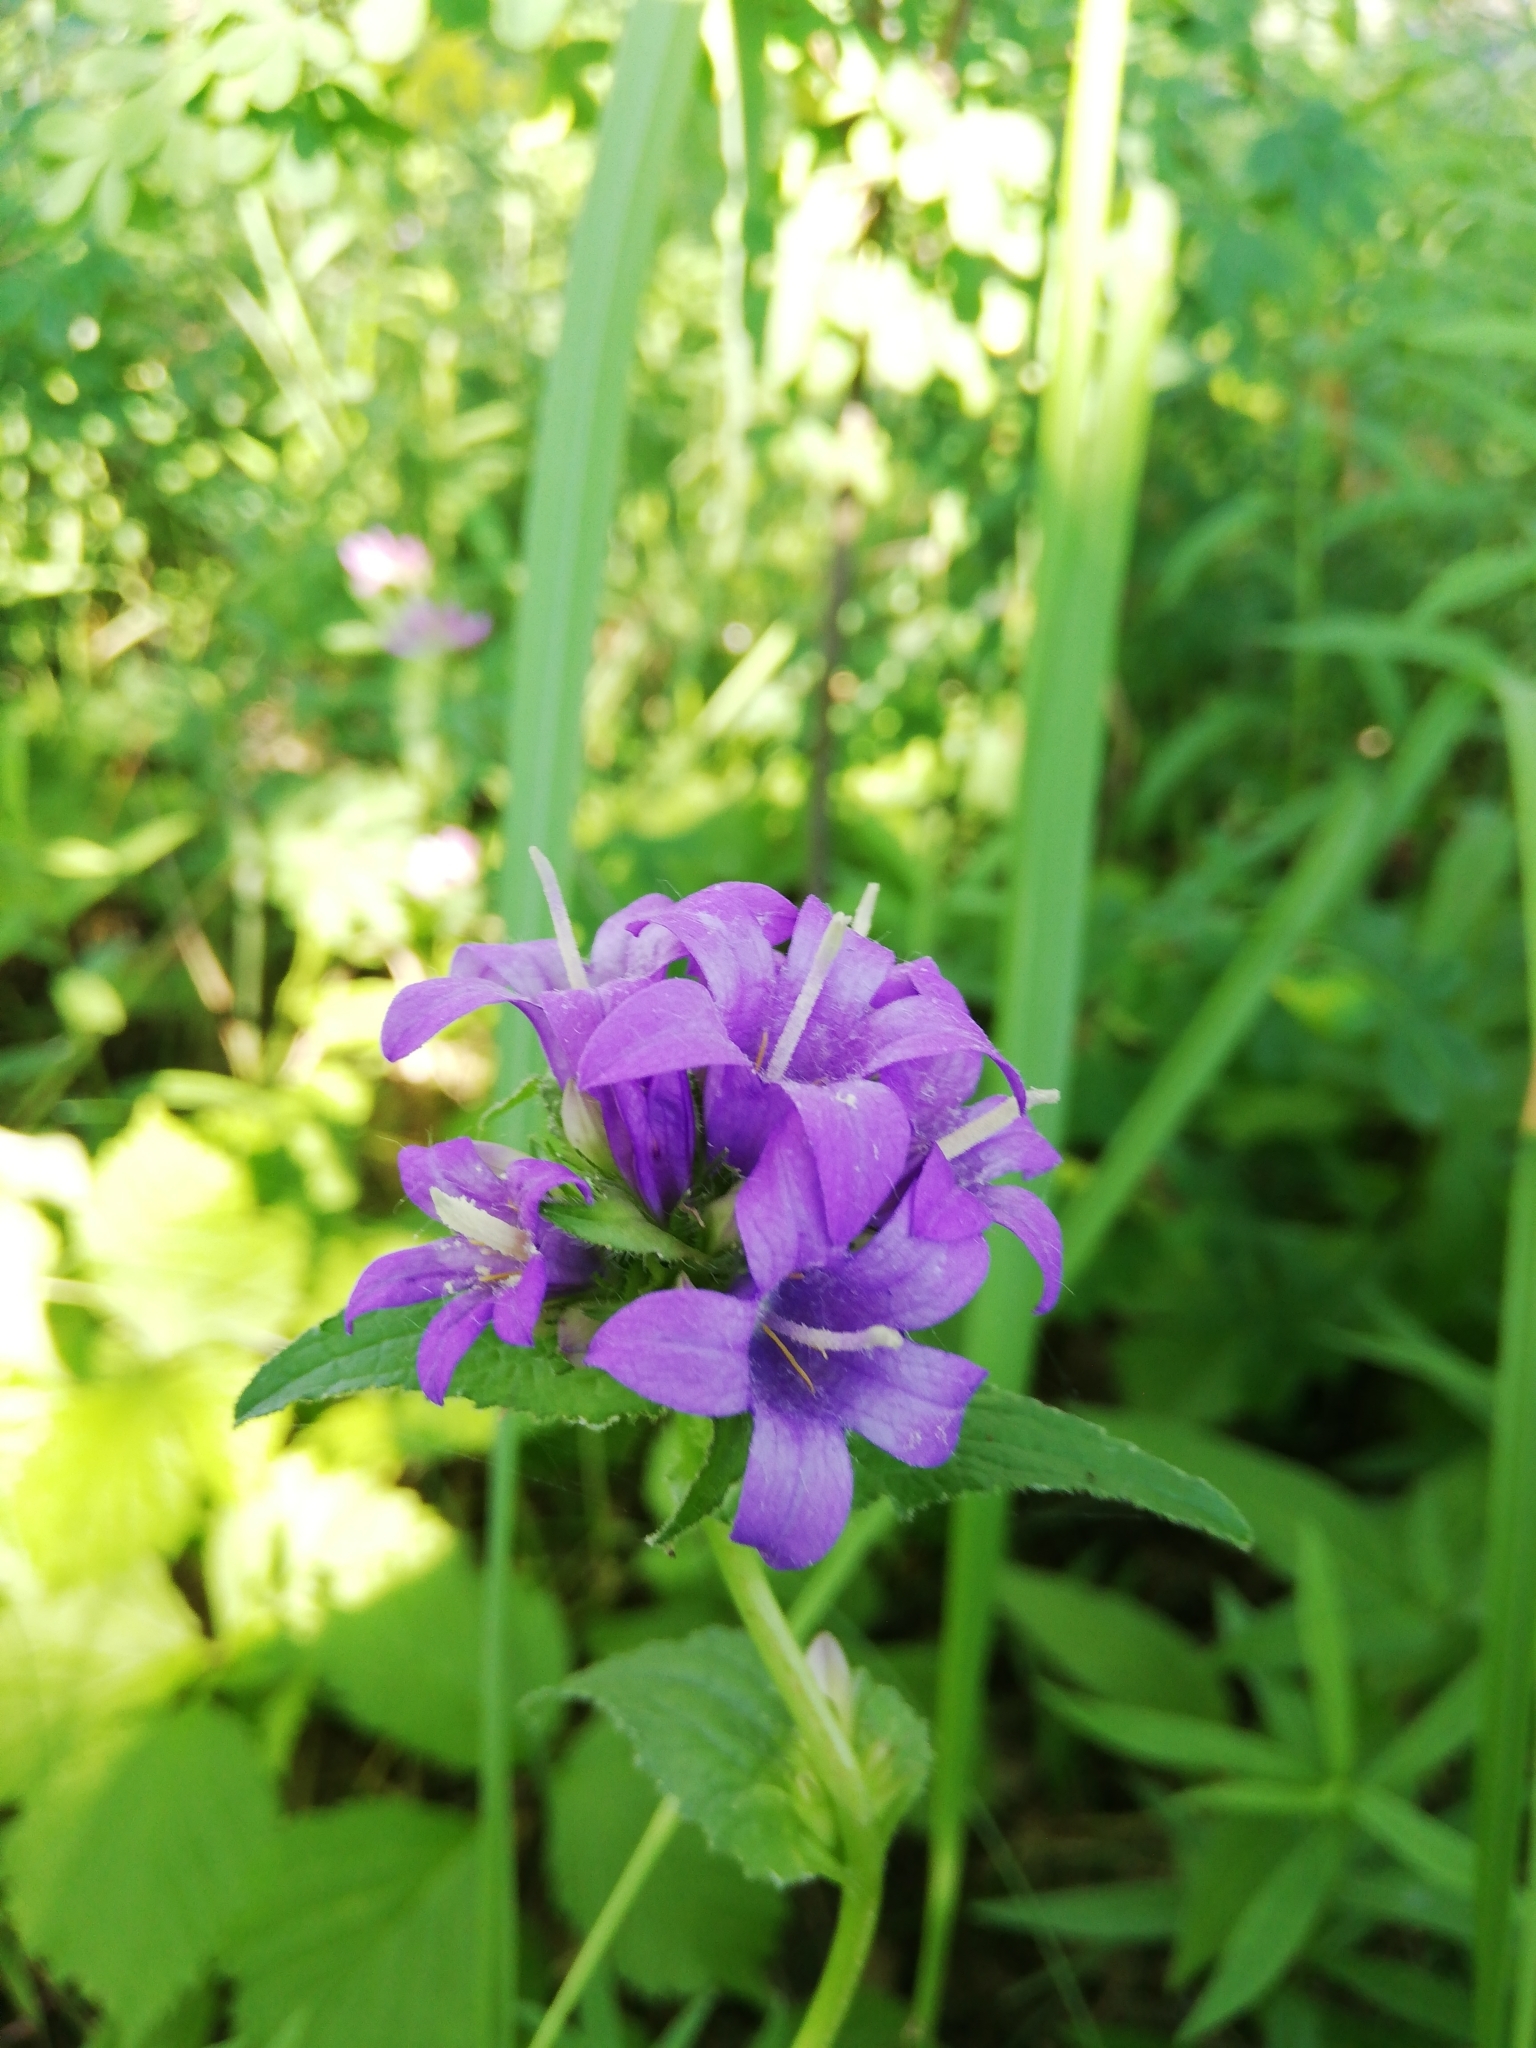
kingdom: Plantae
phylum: Tracheophyta
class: Magnoliopsida
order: Asterales
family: Campanulaceae
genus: Campanula
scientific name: Campanula glomerata
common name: Clustered bellflower
